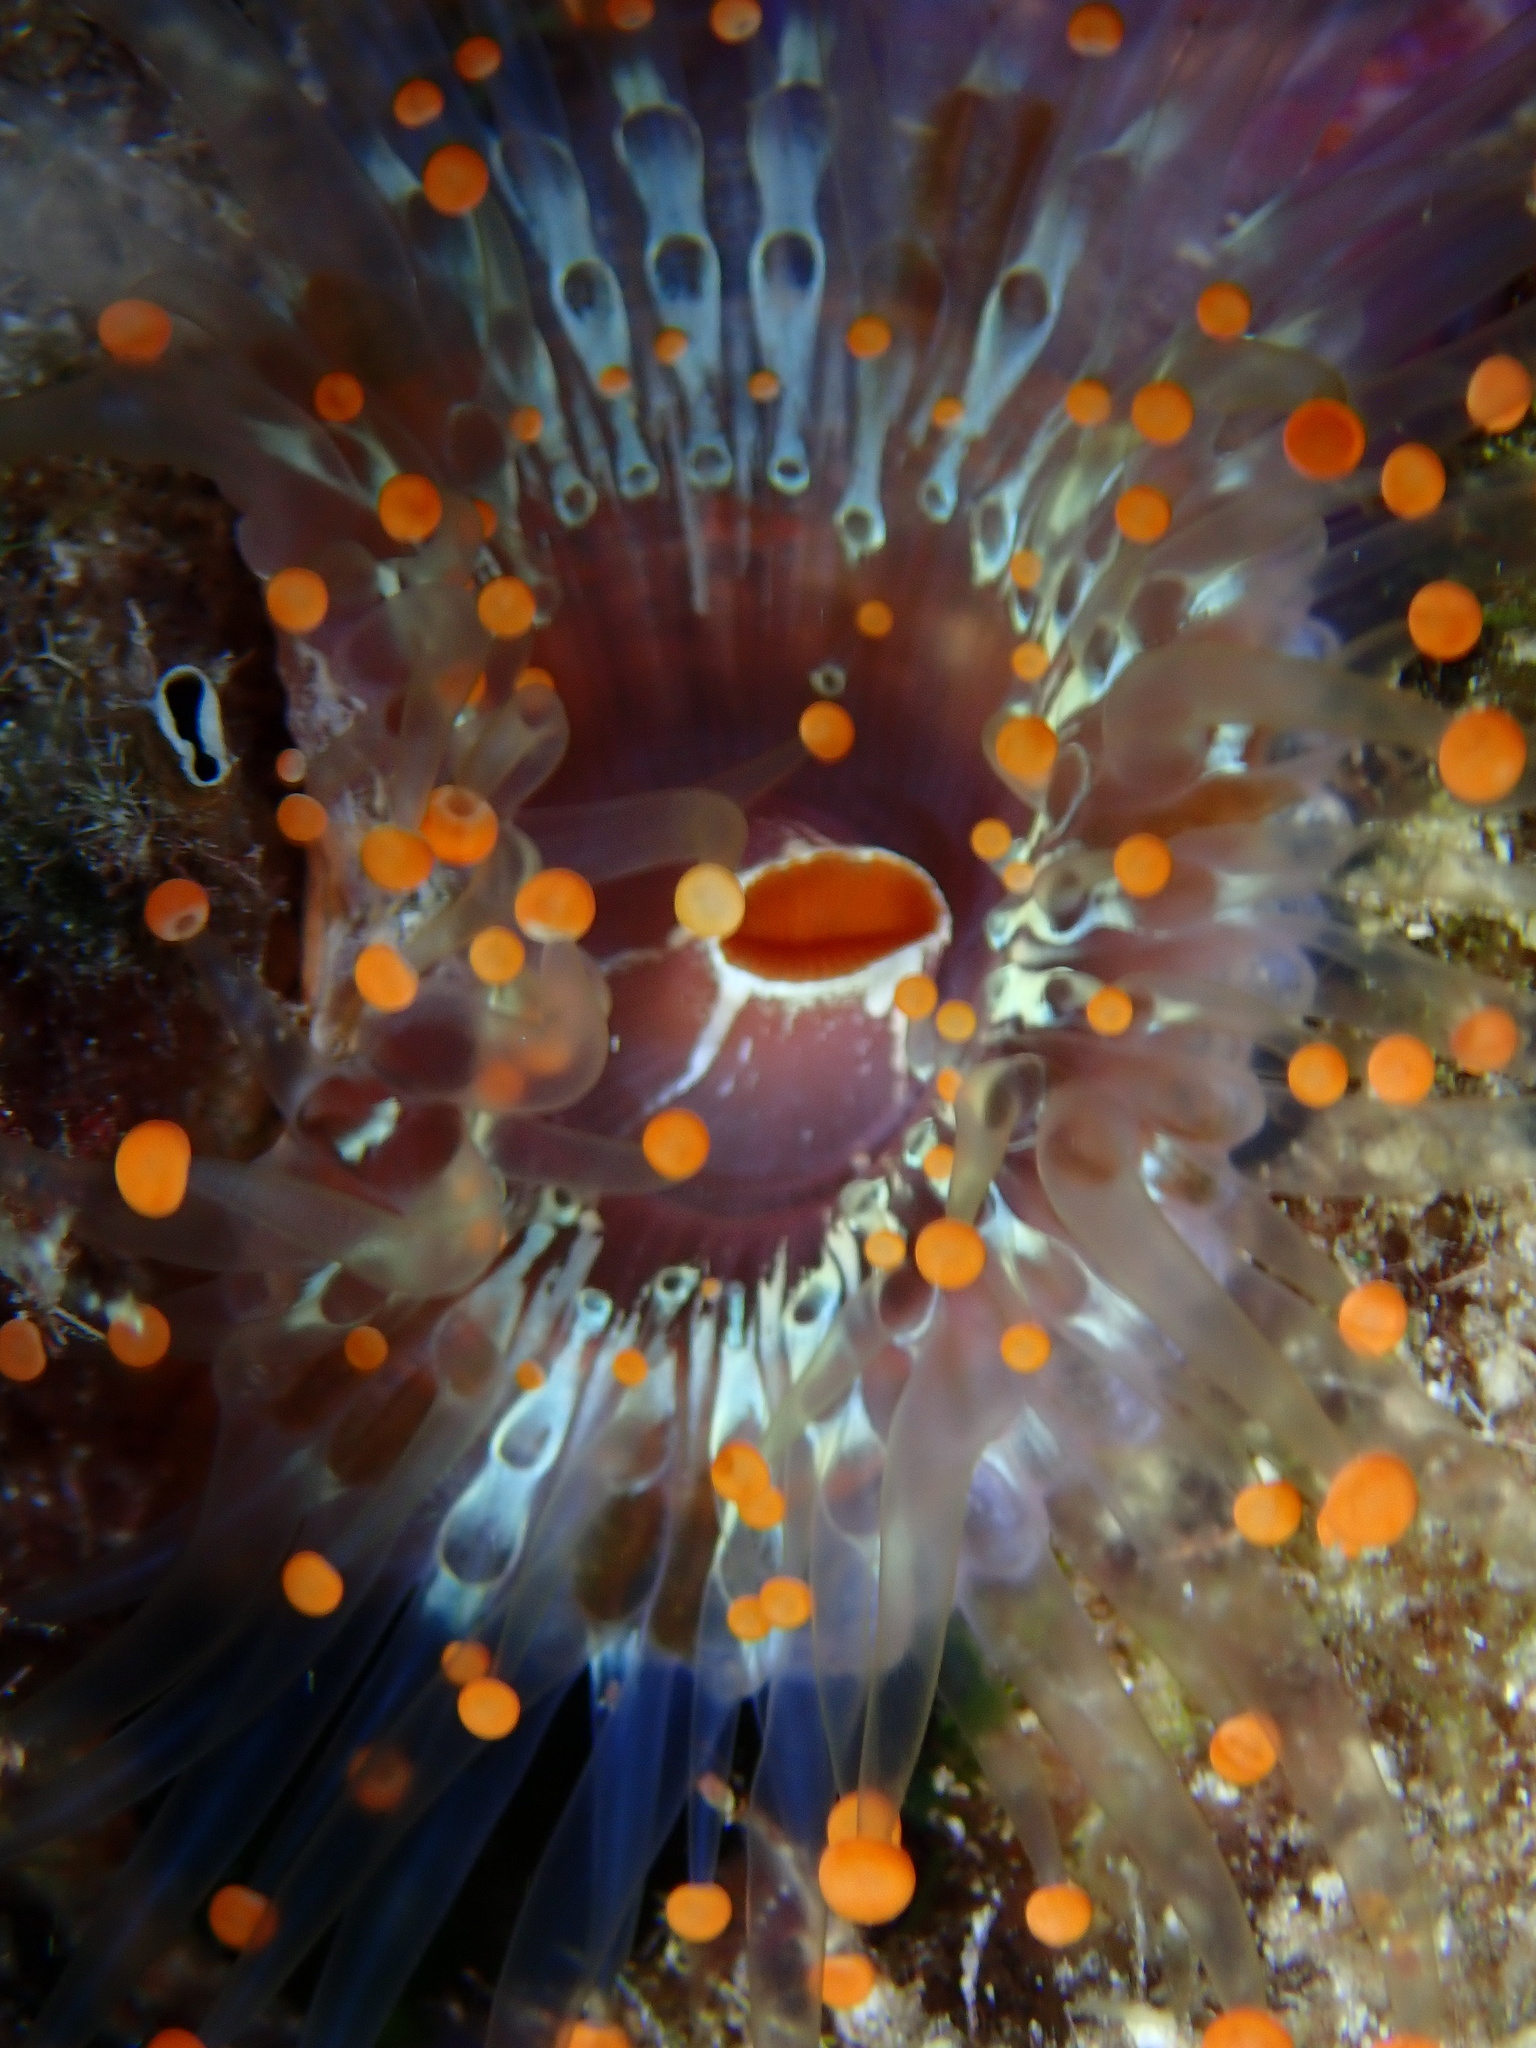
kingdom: Animalia
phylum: Cnidaria
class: Anthozoa
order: Corallimorpharia
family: Corallimorphidae
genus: Pseudocorynactis
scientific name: Pseudocorynactis caribbeorum
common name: Orange ball anemone
